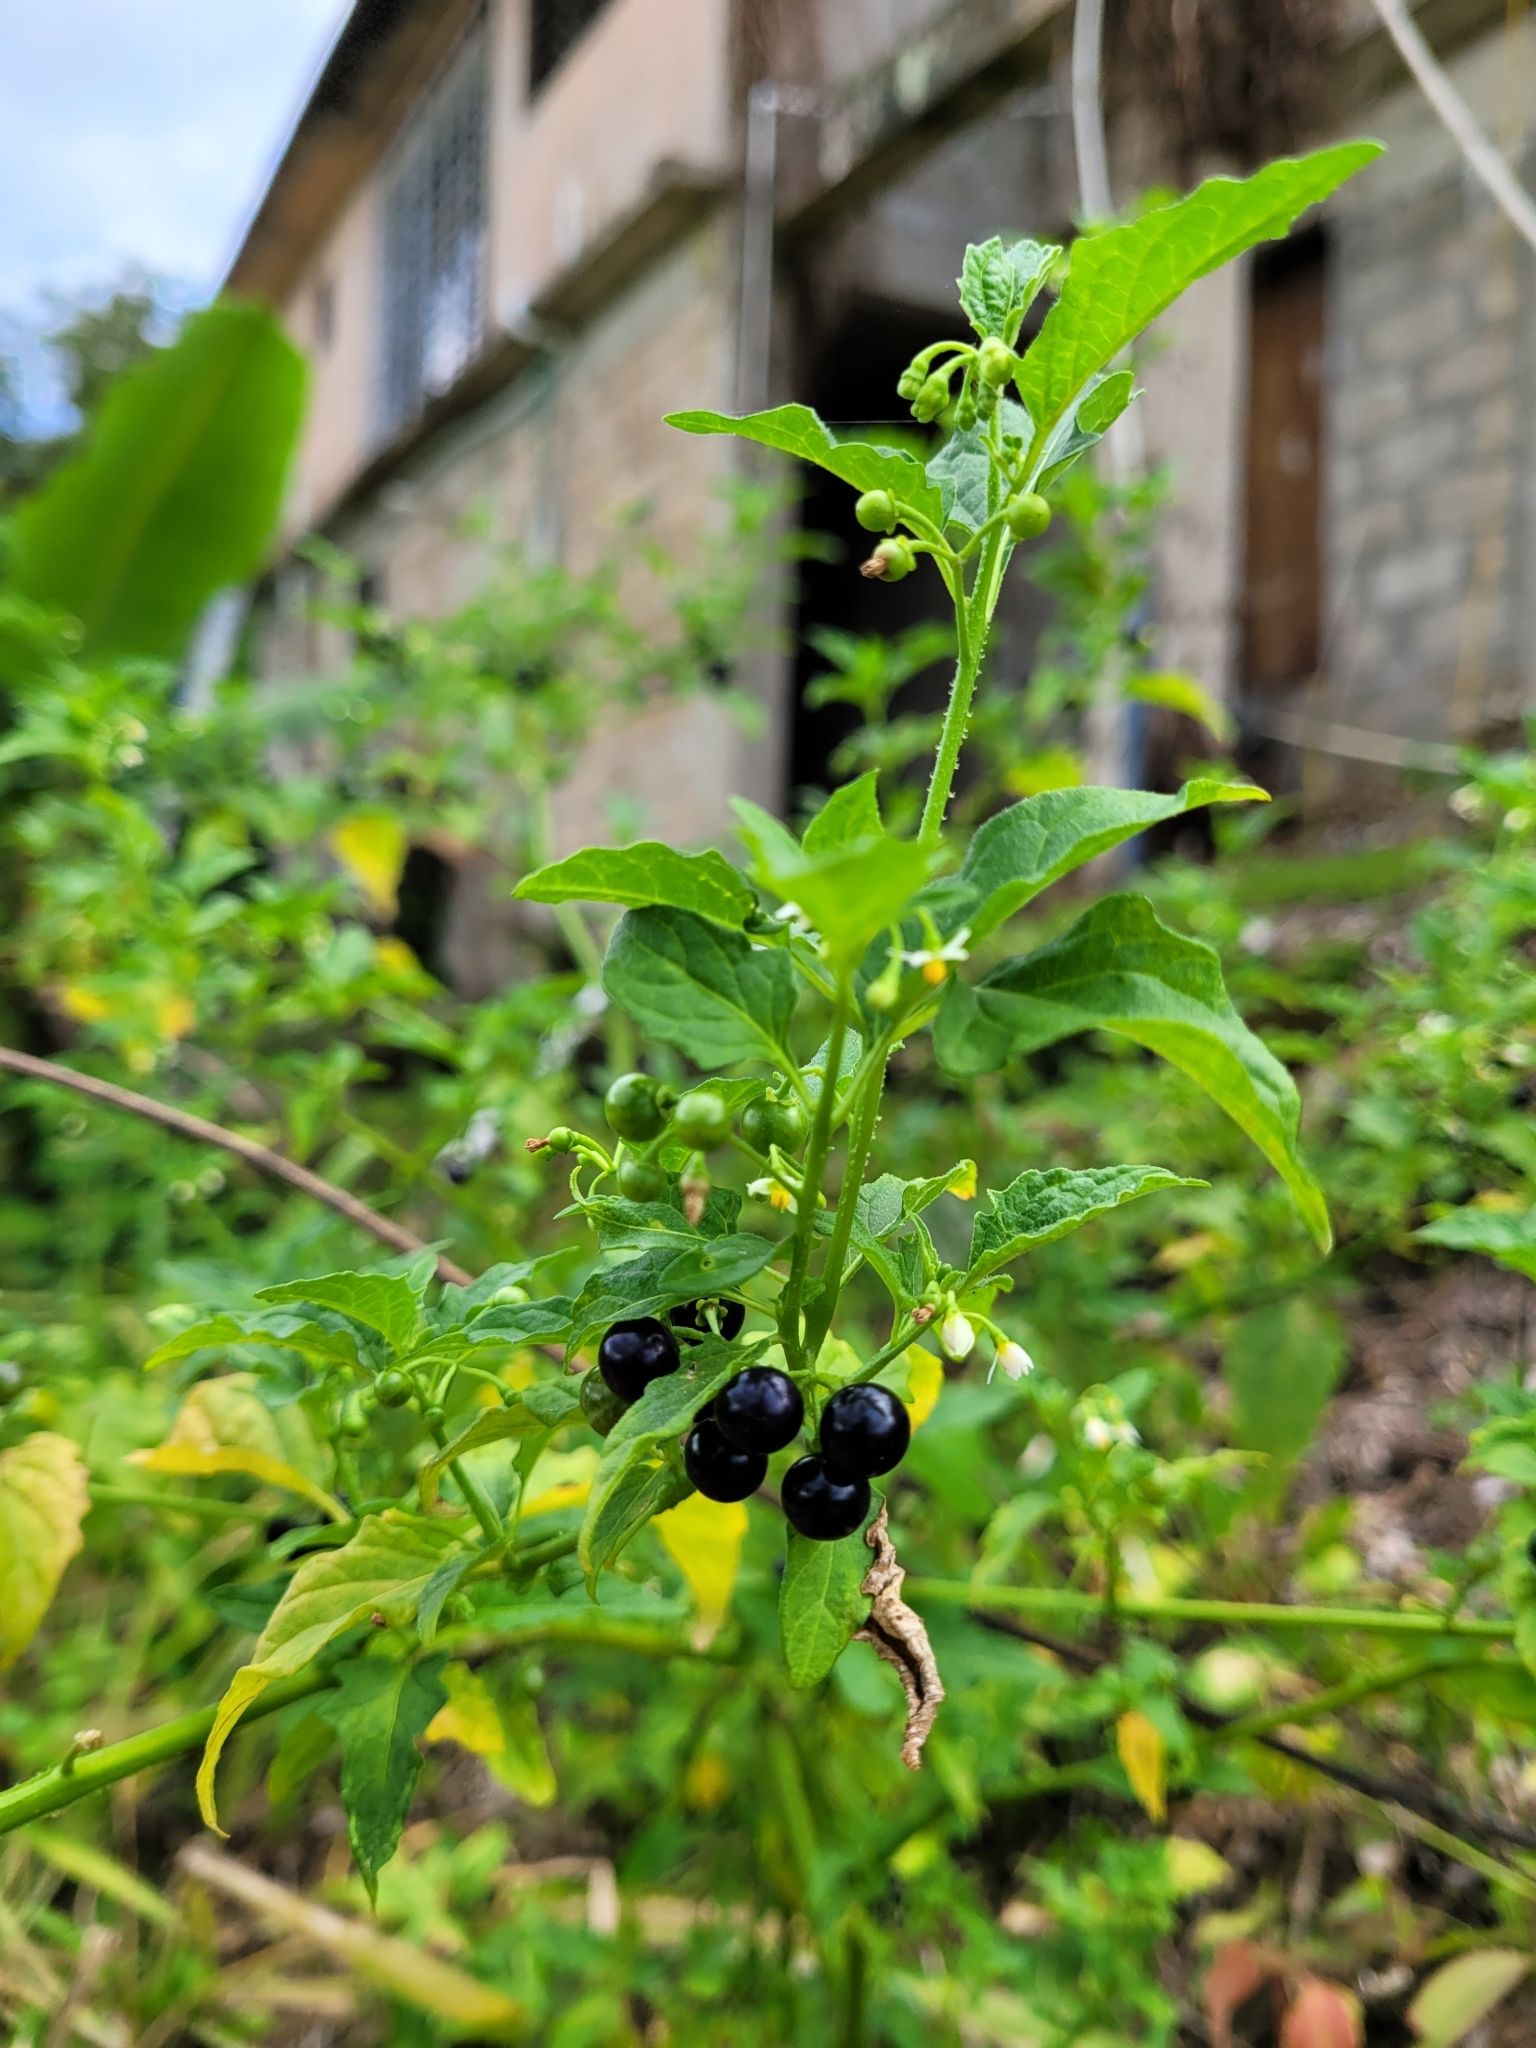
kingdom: Plantae
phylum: Tracheophyta
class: Magnoliopsida
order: Solanales
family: Solanaceae
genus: Solanum
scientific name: Solanum americanum
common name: American black nightshade
